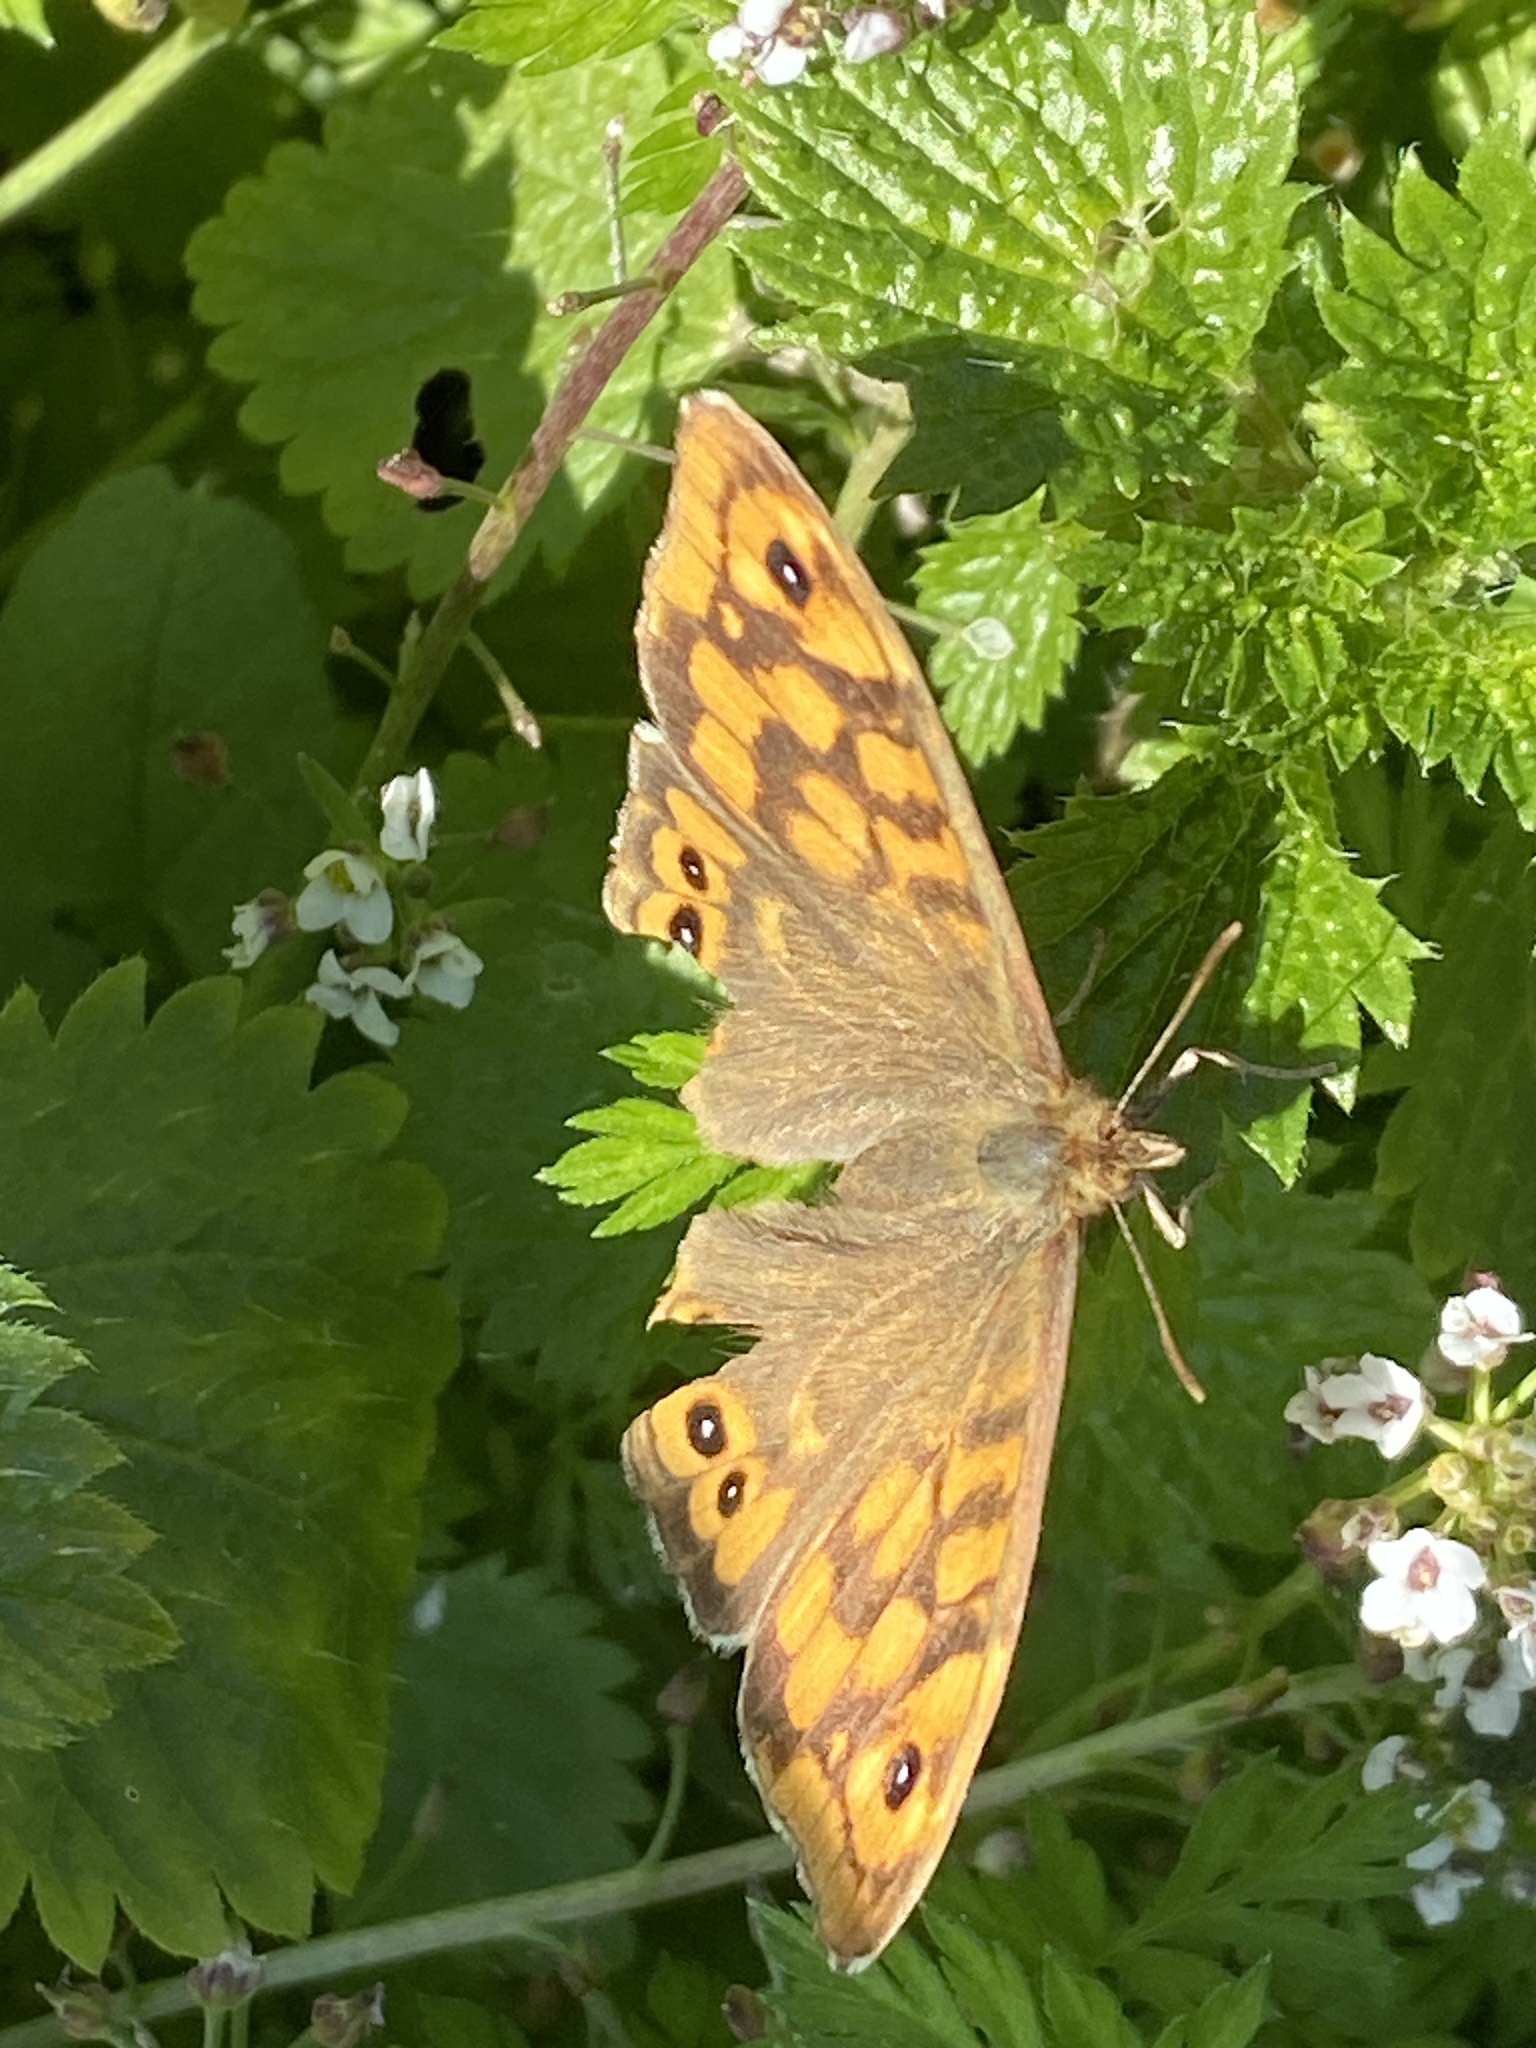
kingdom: Animalia
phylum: Arthropoda
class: Insecta
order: Lepidoptera
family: Nymphalidae
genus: Pararge
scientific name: Pararge aegeria
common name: Speckled wood
